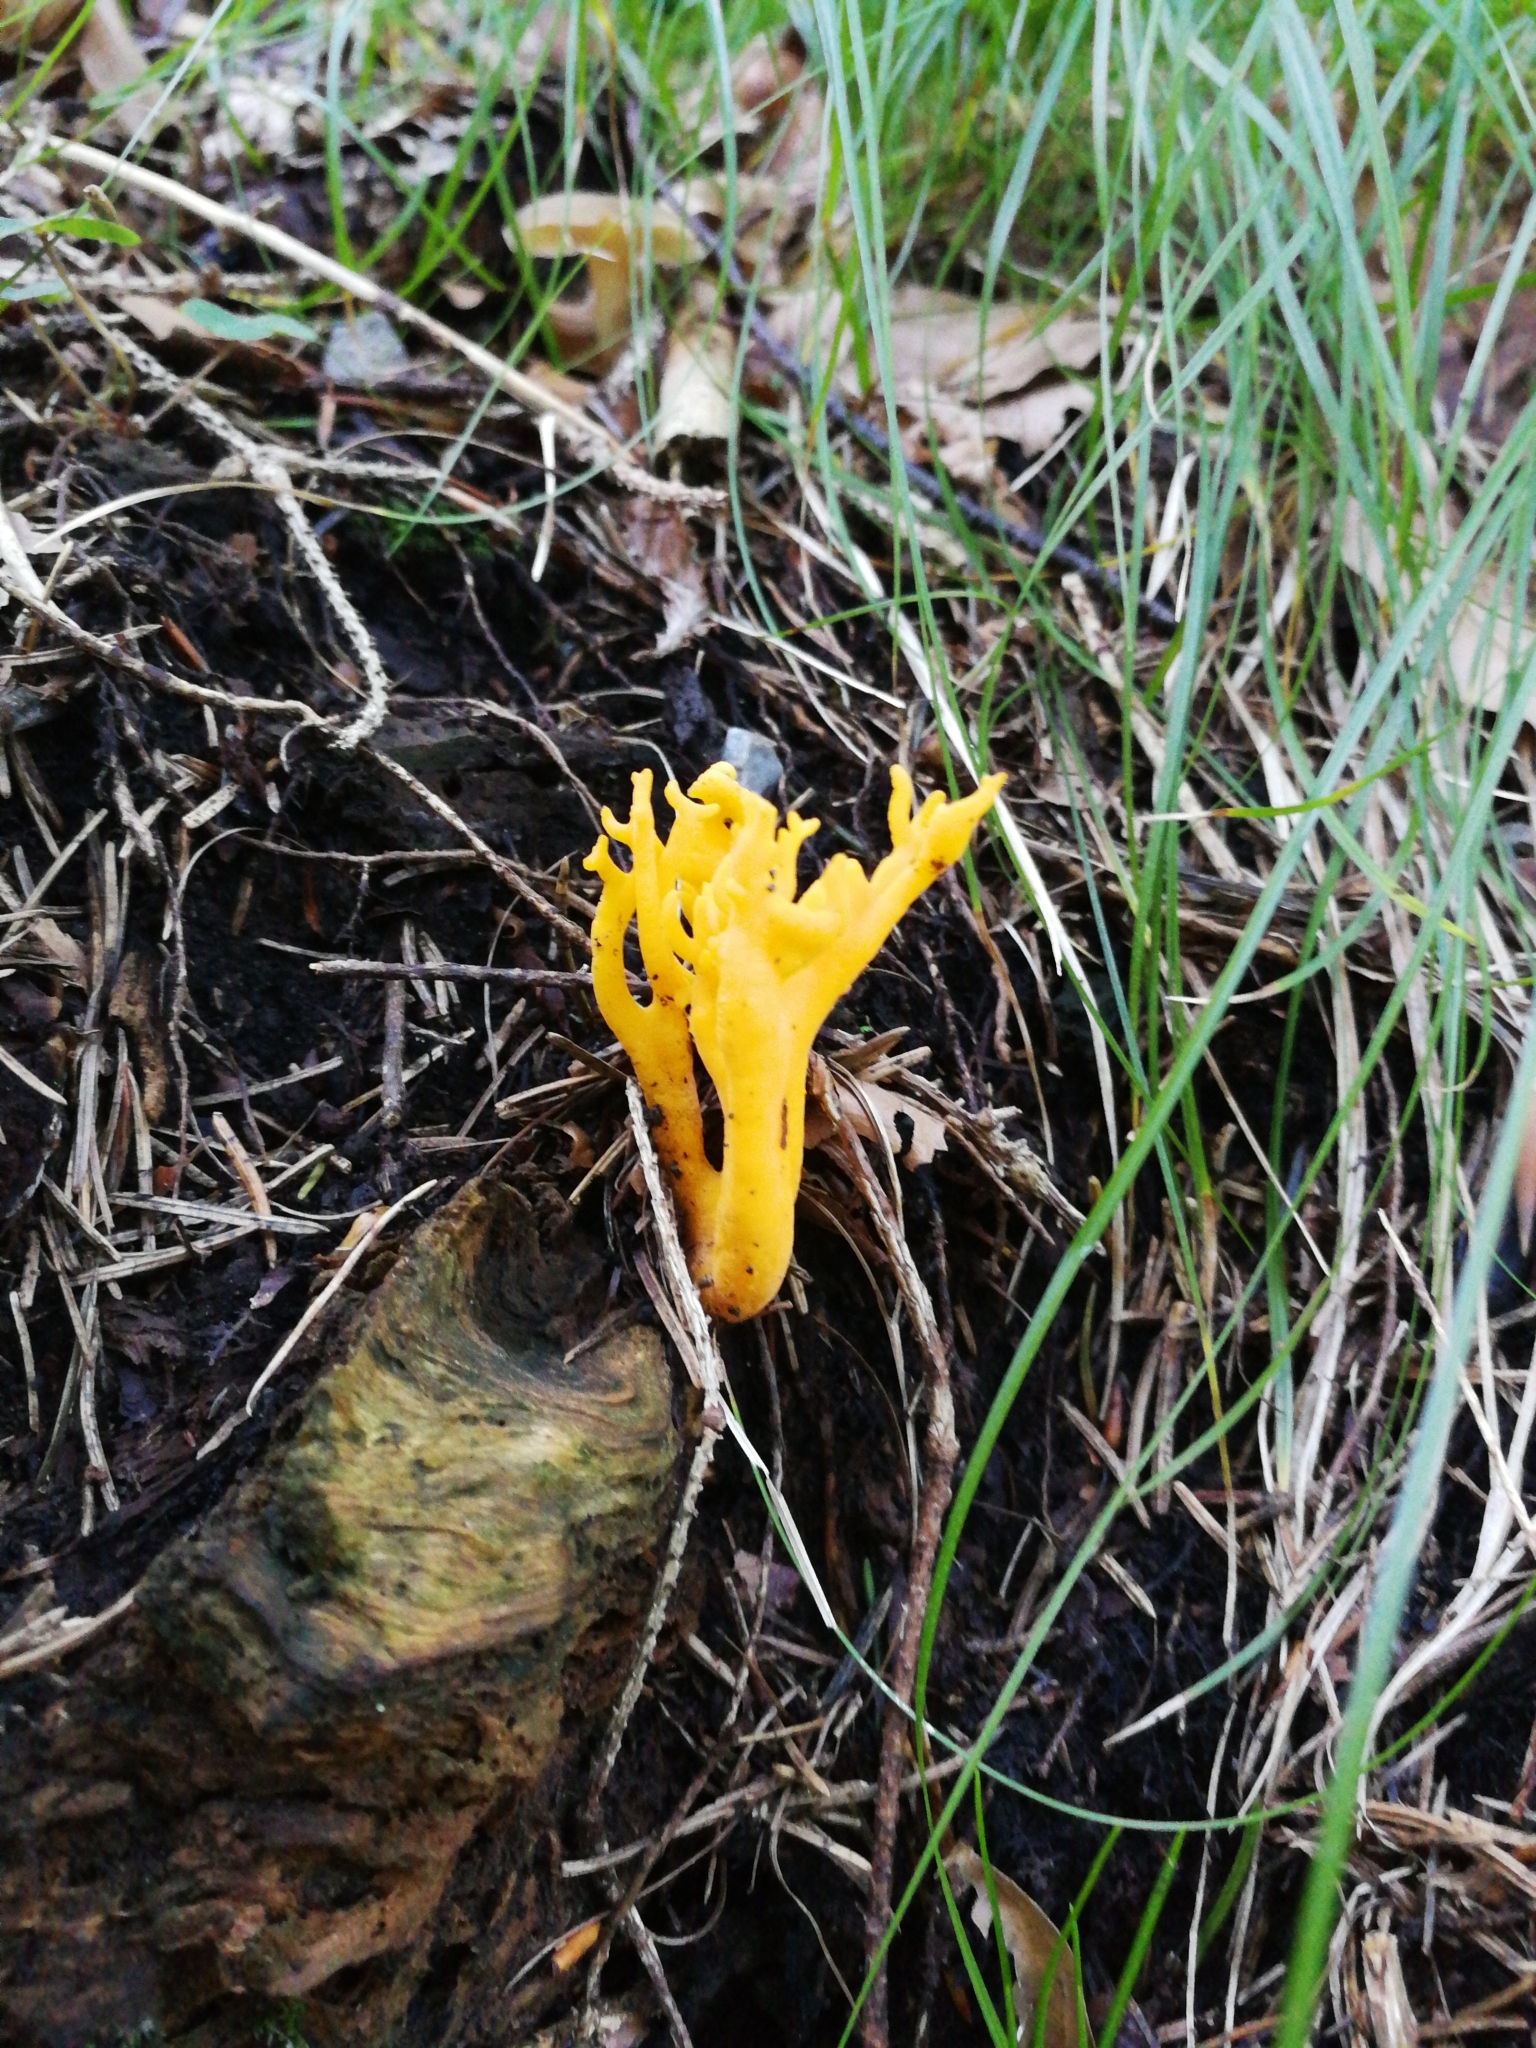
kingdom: Fungi
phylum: Basidiomycota
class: Dacrymycetes
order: Dacrymycetales
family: Dacrymycetaceae
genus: Calocera
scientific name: Calocera viscosa
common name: Yellow stagshorn
